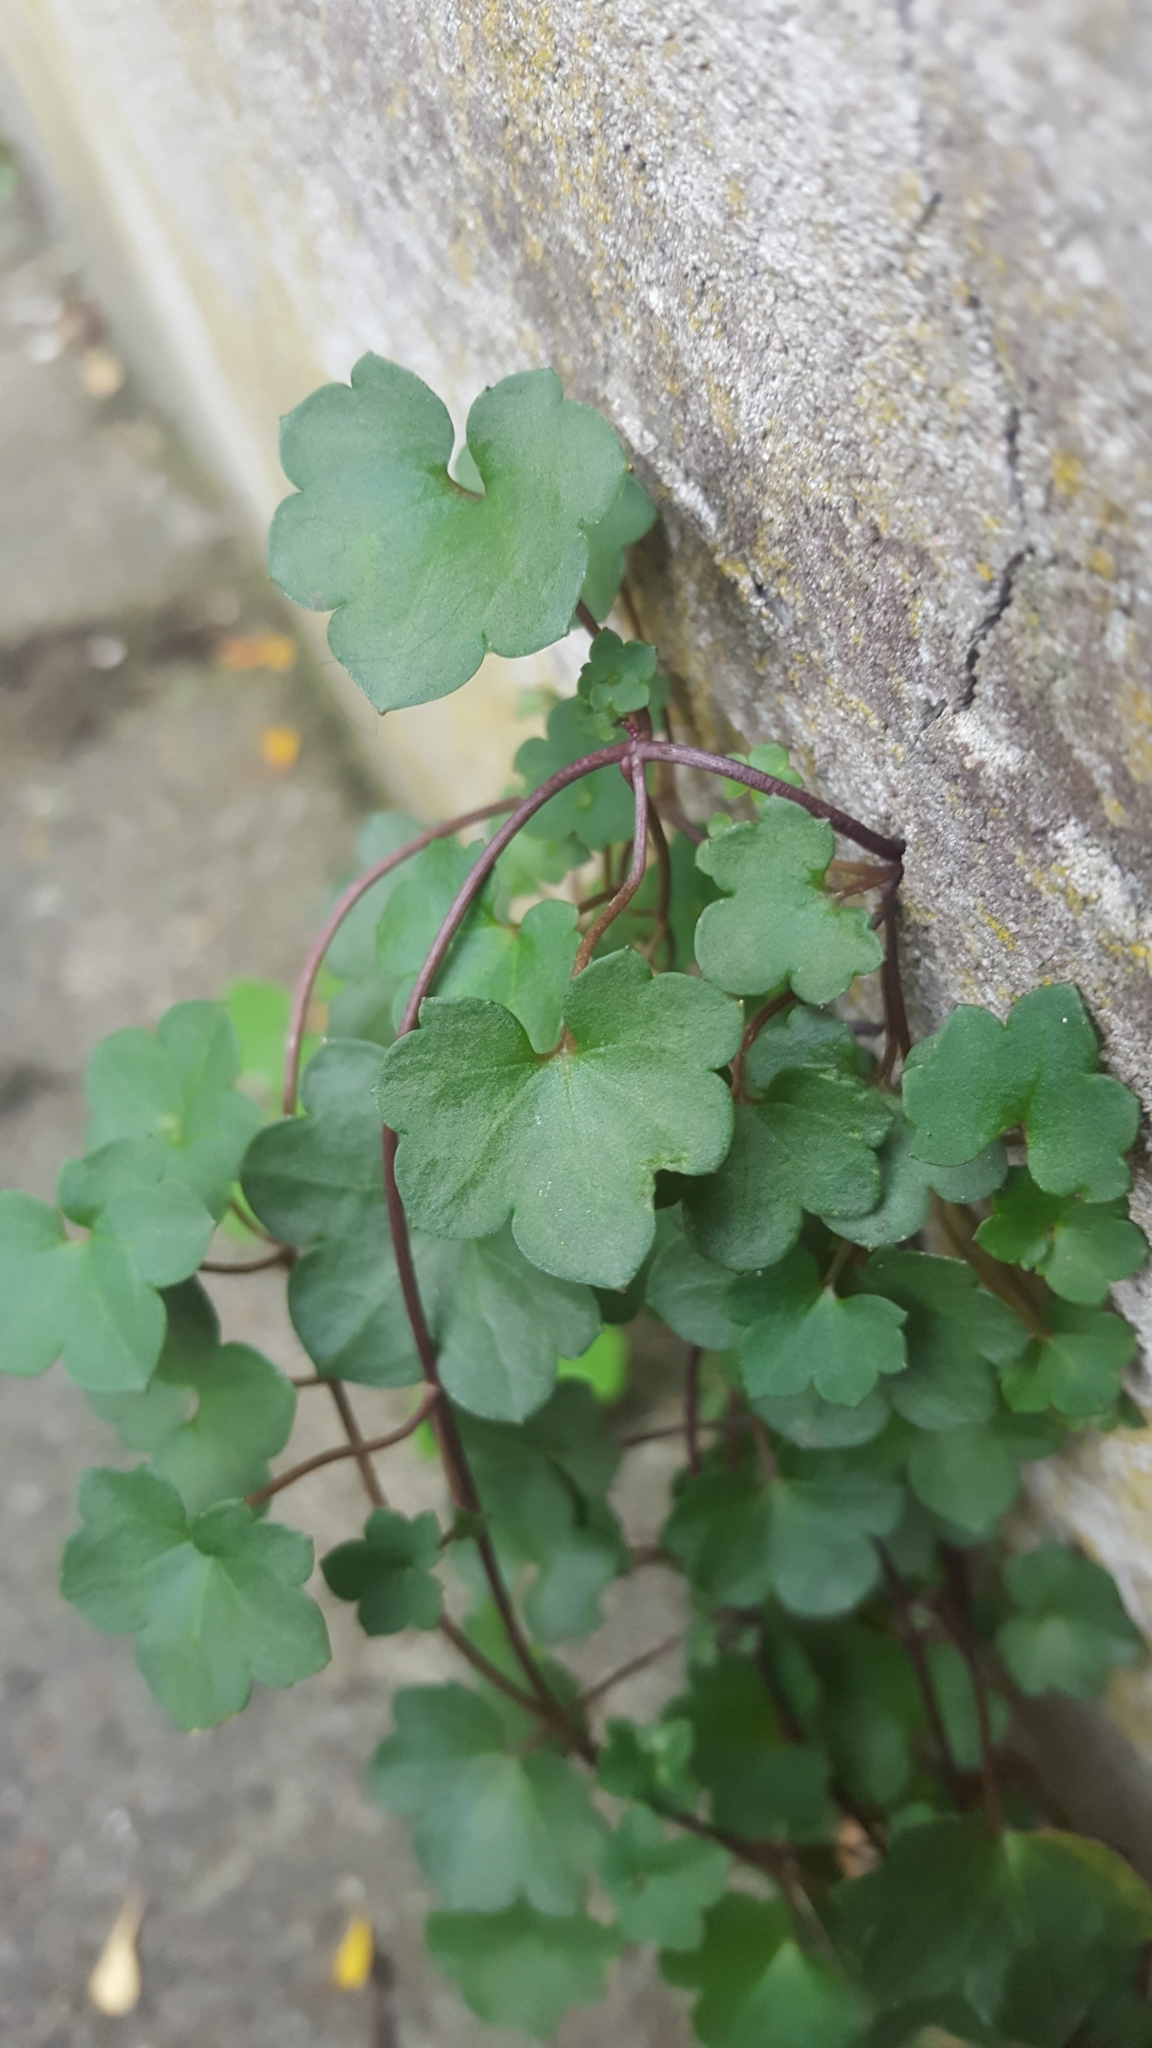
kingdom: Plantae
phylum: Tracheophyta
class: Magnoliopsida
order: Lamiales
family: Plantaginaceae
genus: Cymbalaria
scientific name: Cymbalaria muralis
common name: Ivy-leaved toadflax
